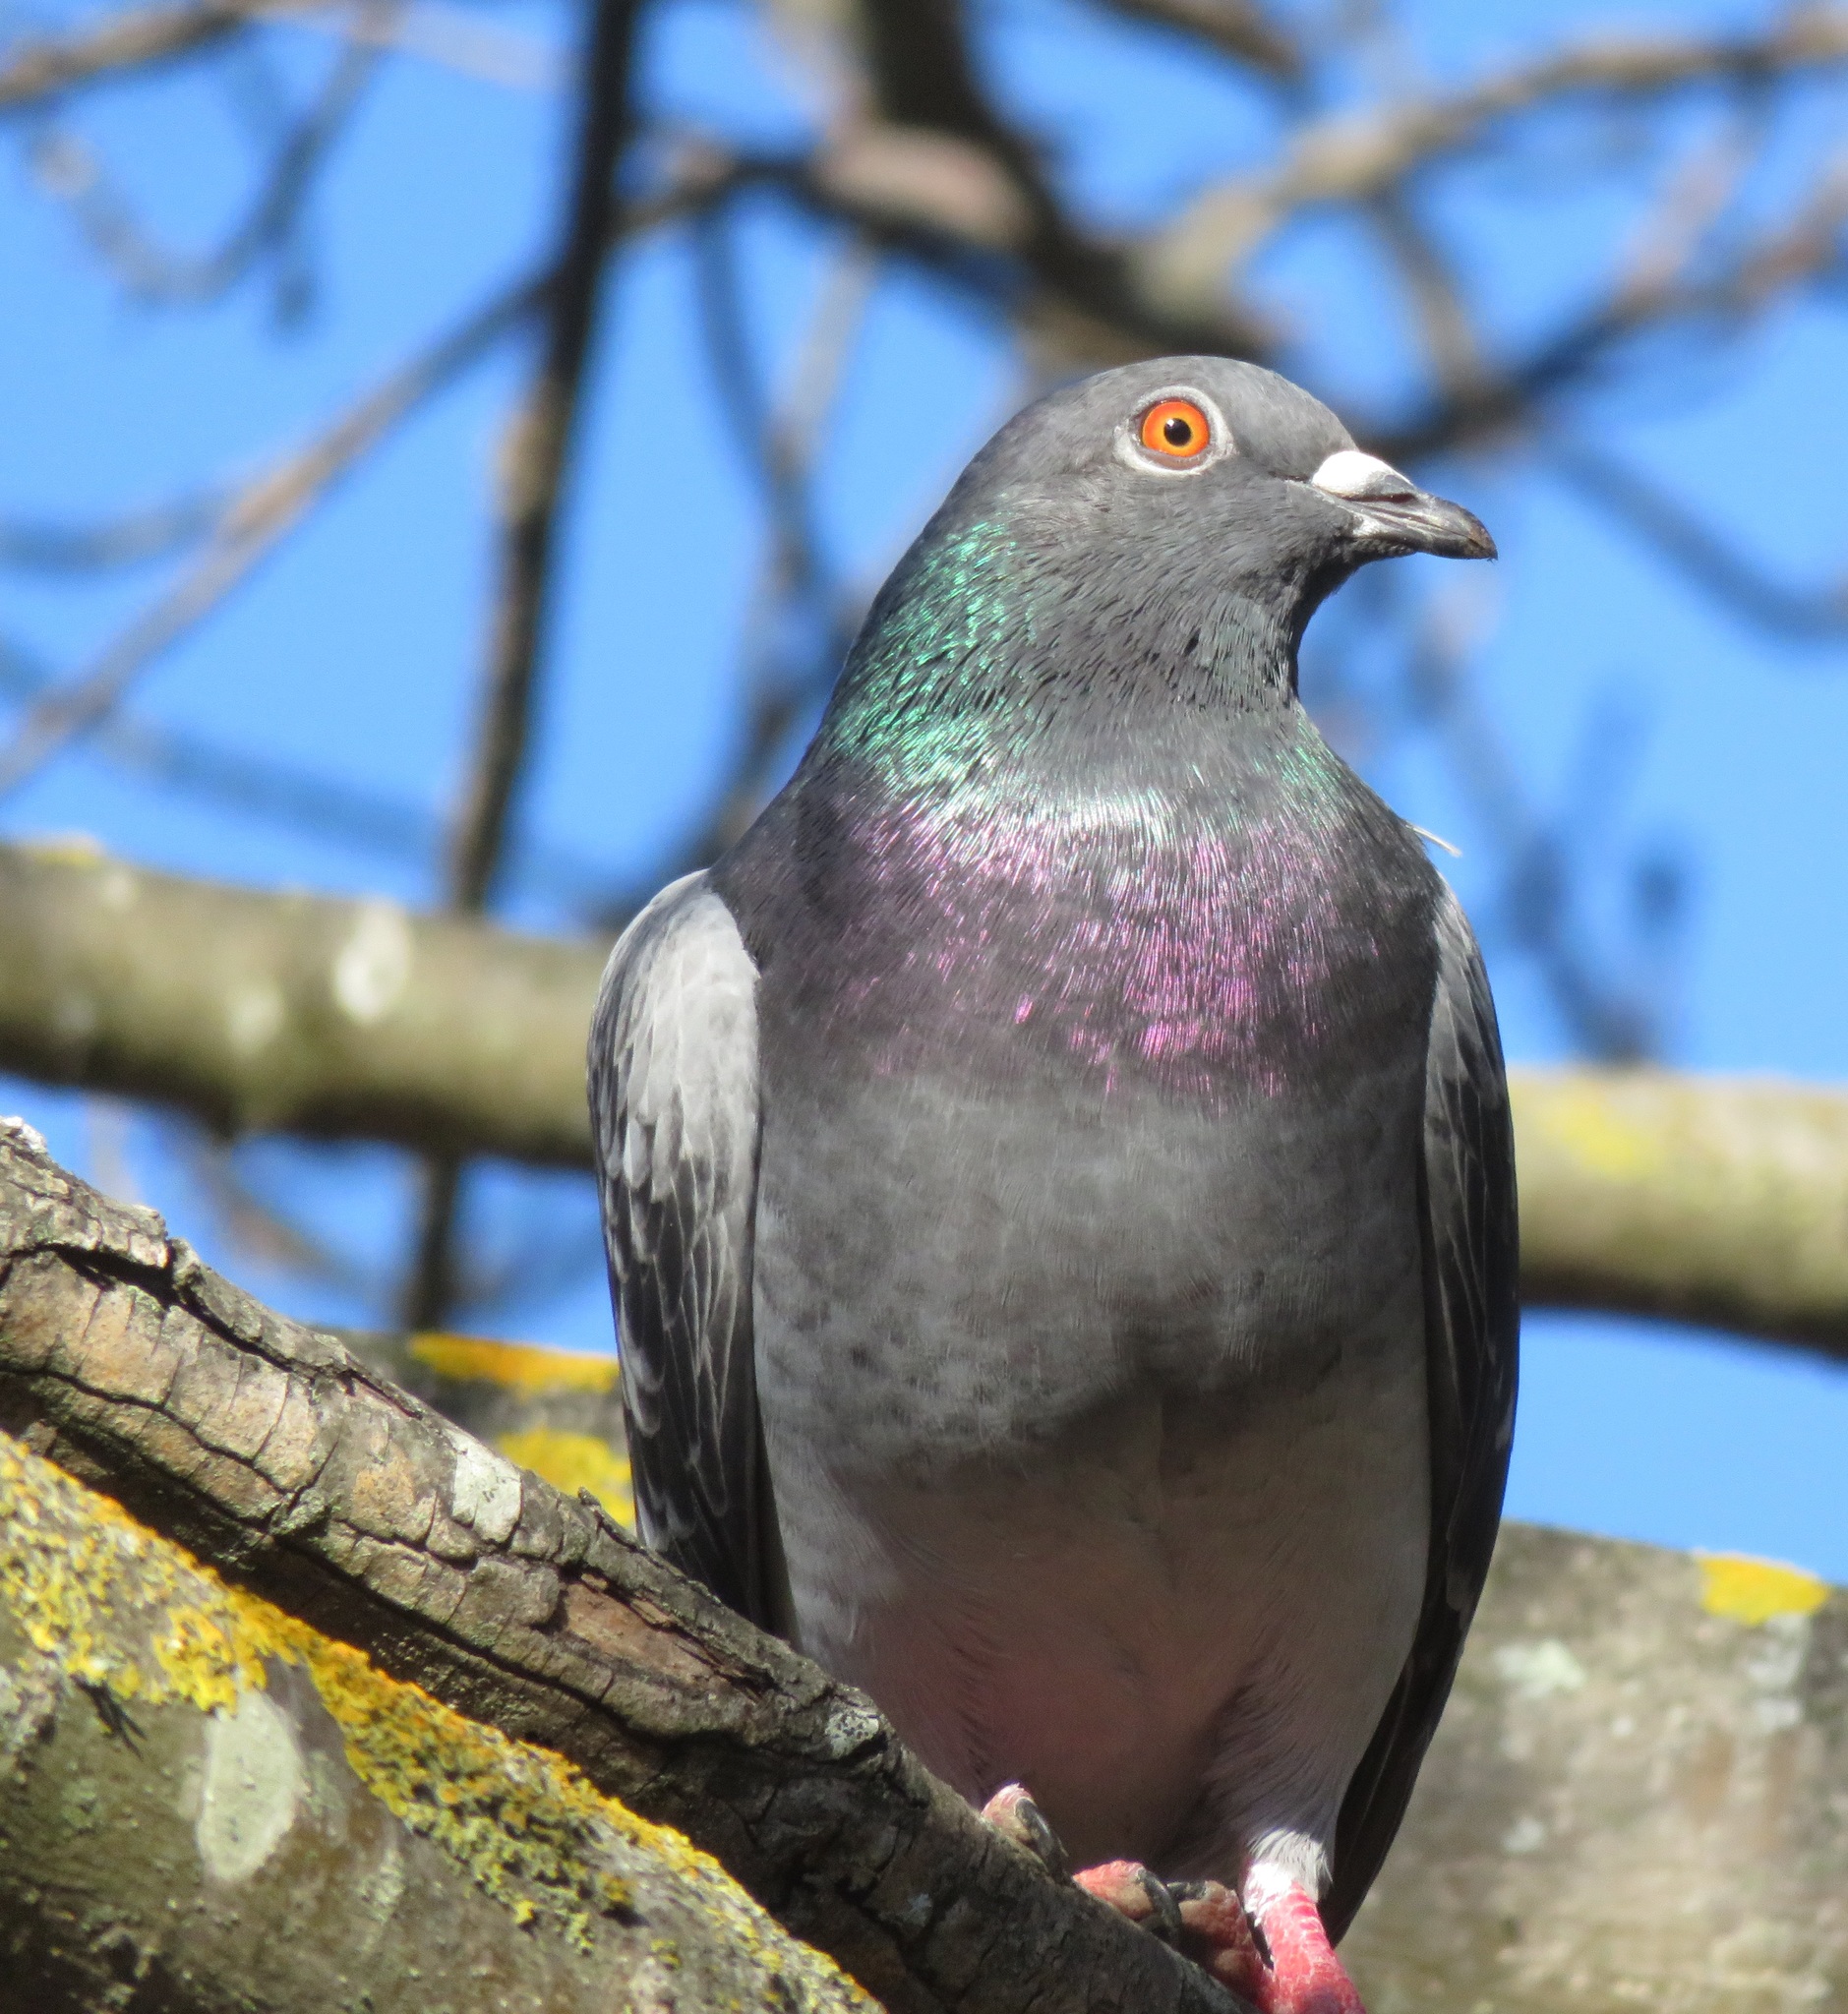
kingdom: Animalia
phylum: Chordata
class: Aves
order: Columbiformes
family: Columbidae
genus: Columba
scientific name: Columba livia
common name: Rock pigeon
